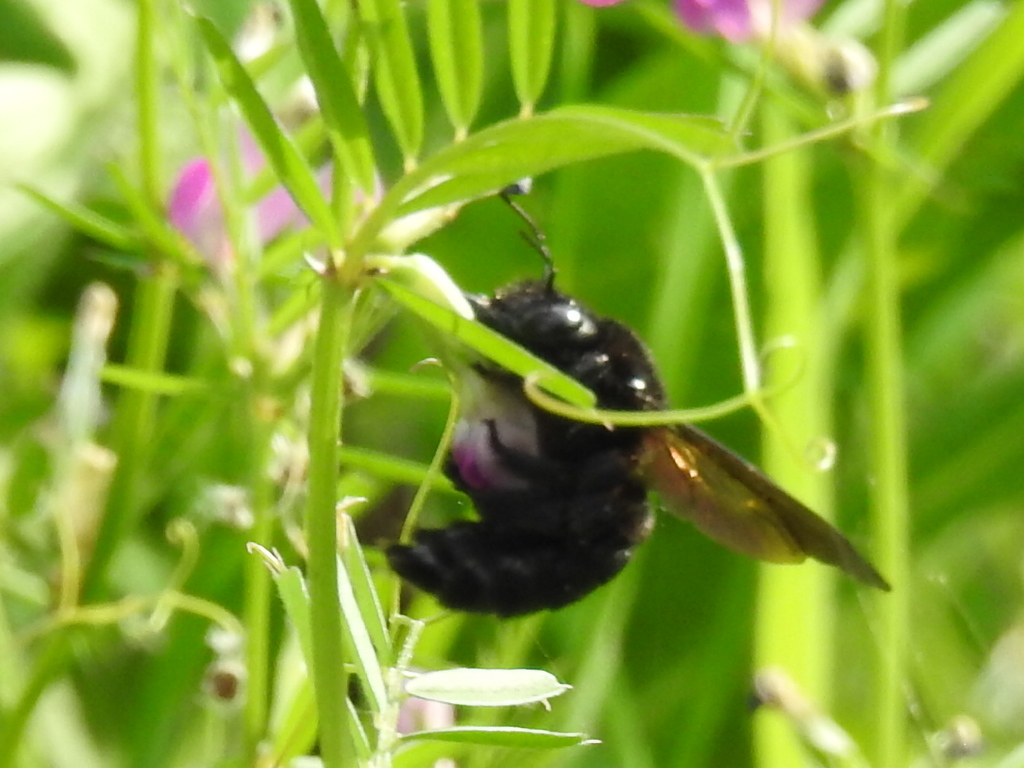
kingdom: Animalia
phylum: Arthropoda
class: Insecta
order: Hymenoptera
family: Apidae
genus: Xylocopa
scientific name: Xylocopa sonorina
